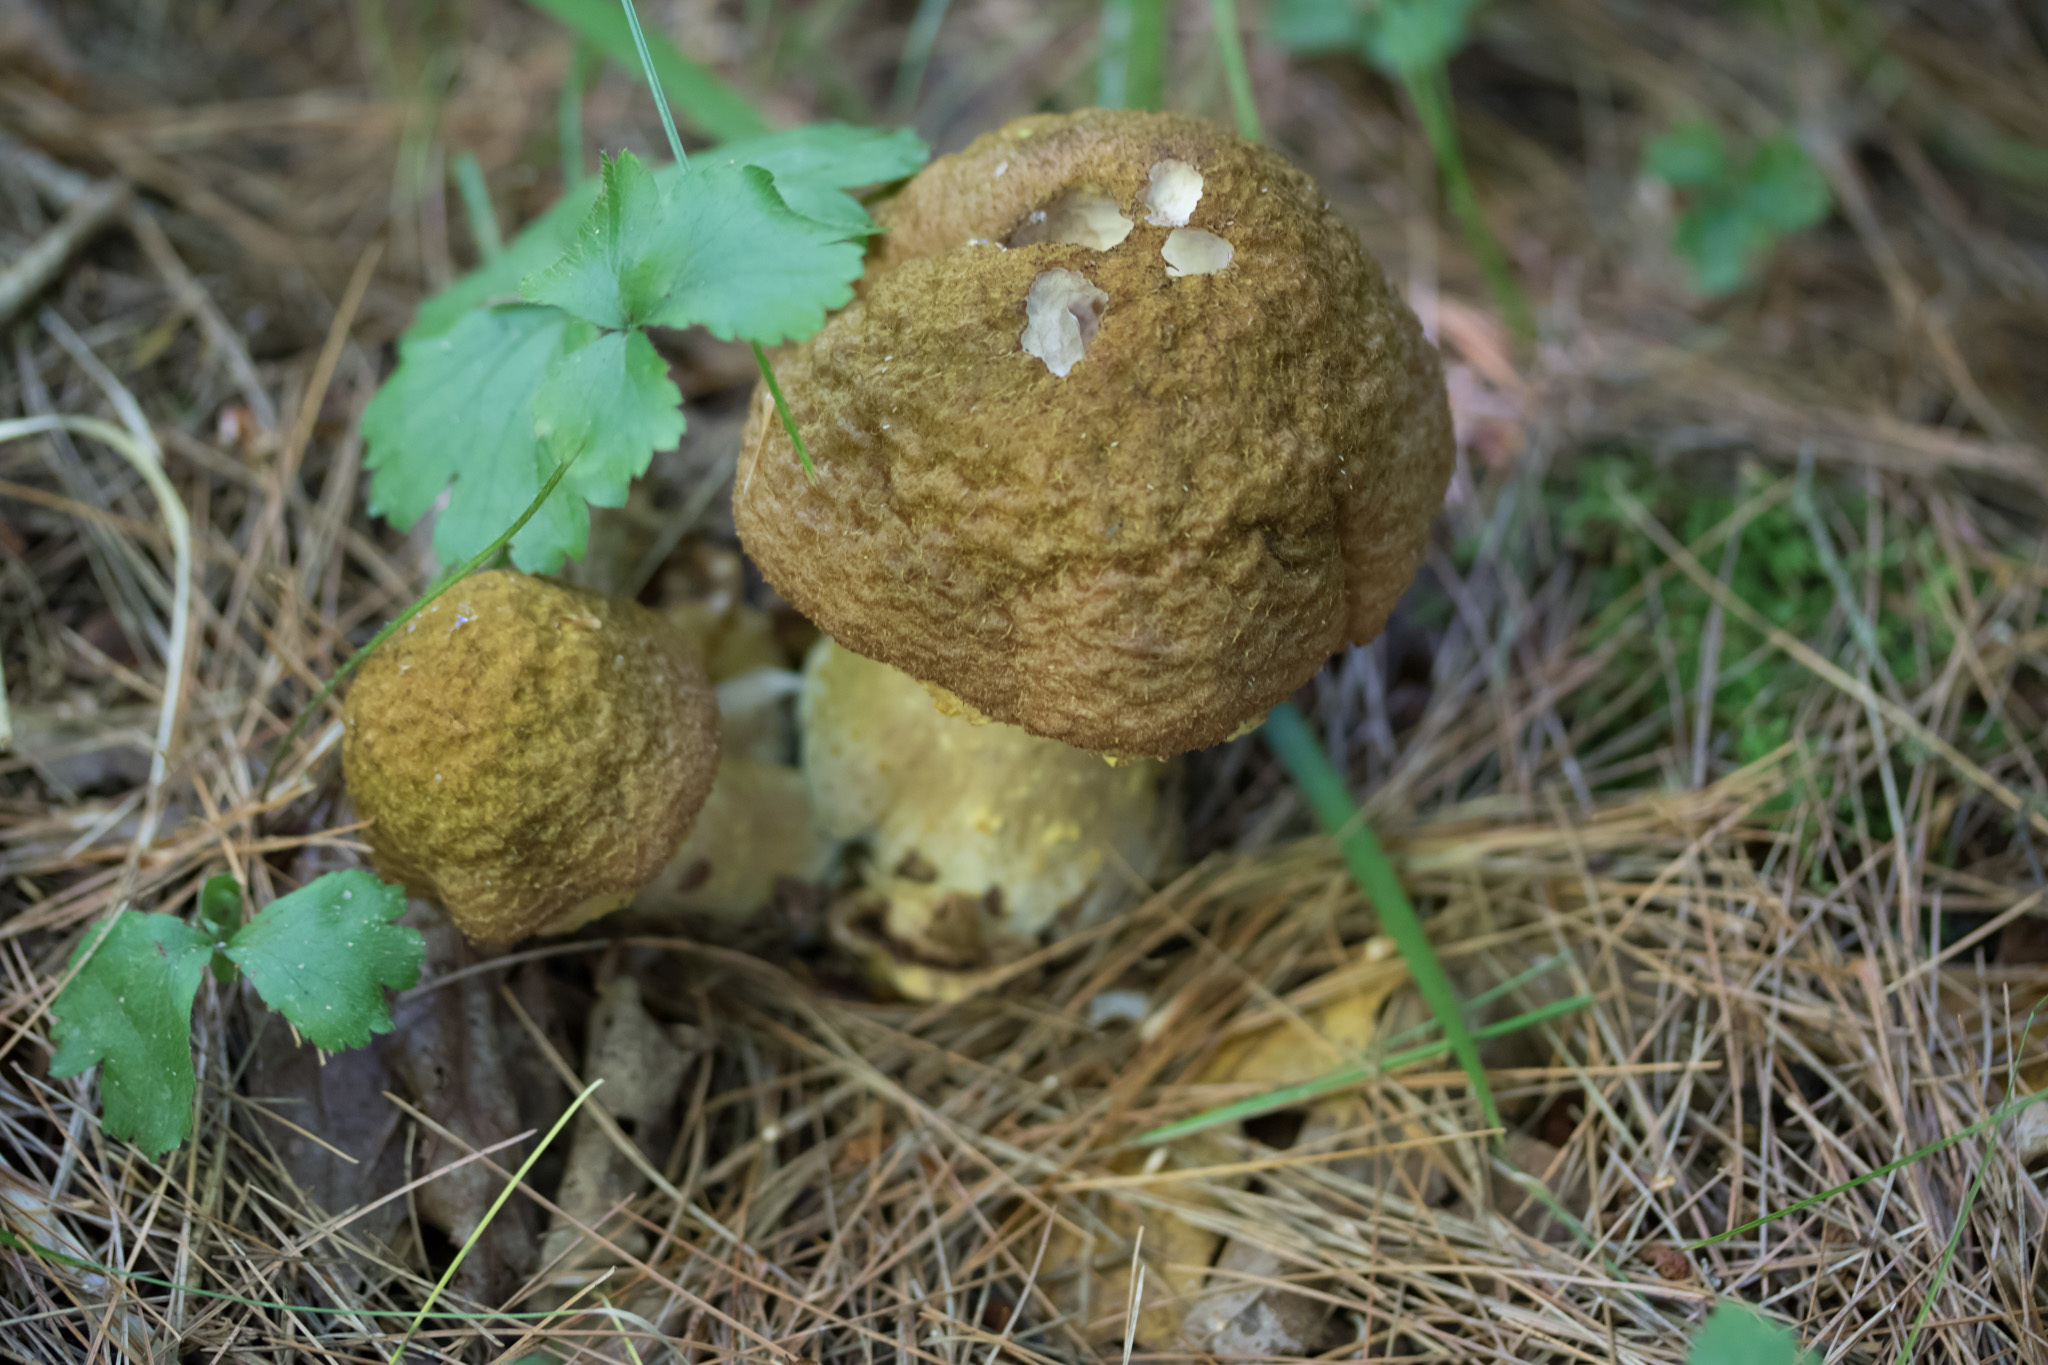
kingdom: Fungi
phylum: Basidiomycota
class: Agaricomycetes
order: Agaricales
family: Physalacriaceae
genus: Armillaria
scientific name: Armillaria ostoyae
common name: Dark honey fungus
